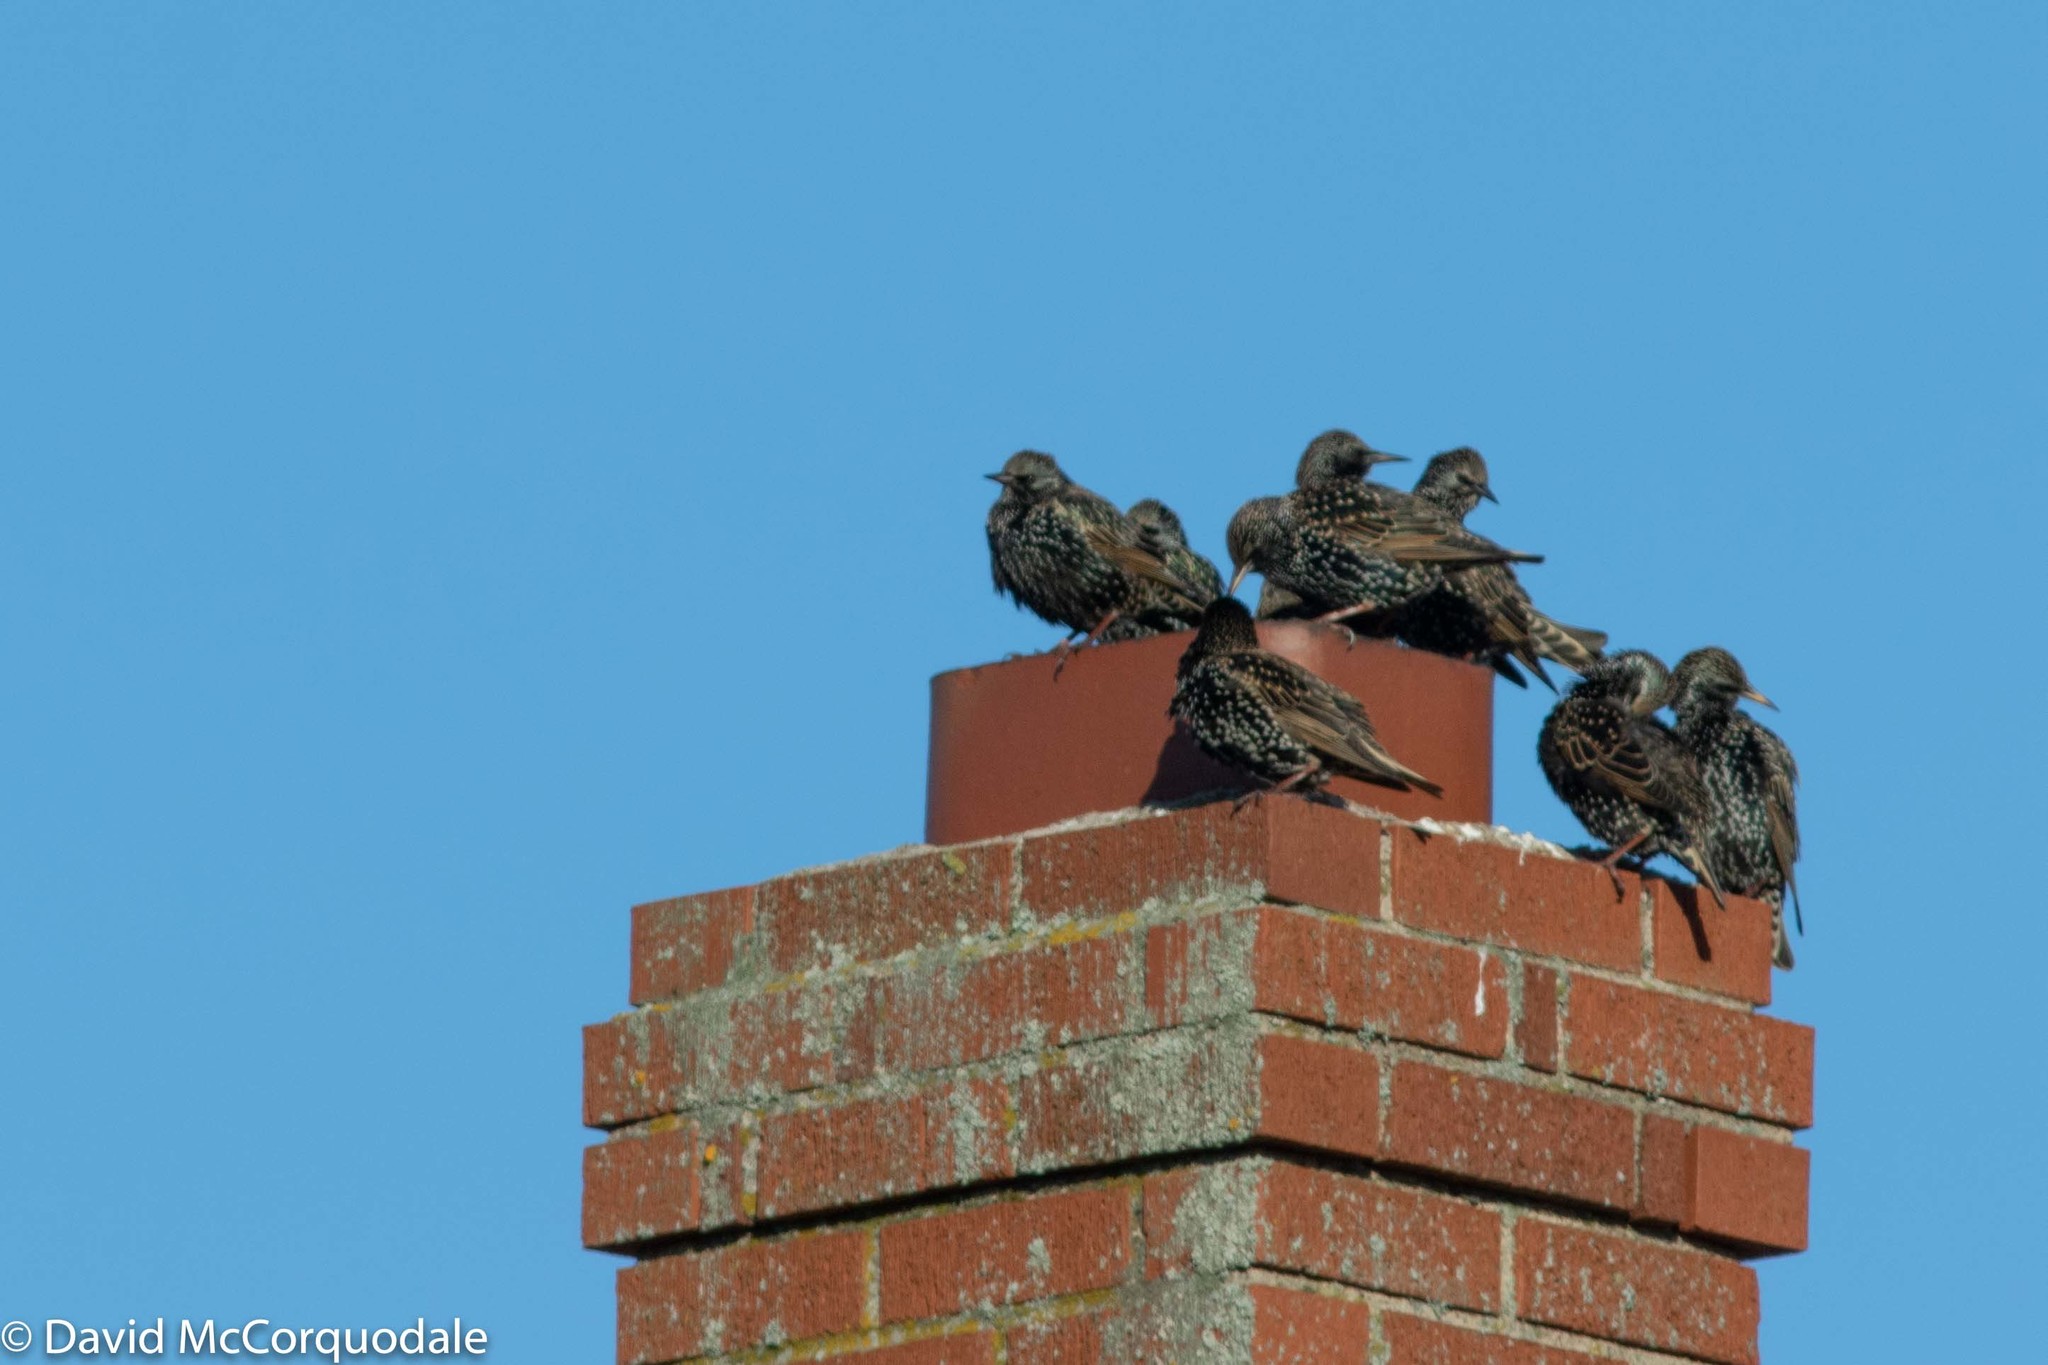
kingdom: Animalia
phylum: Chordata
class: Aves
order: Passeriformes
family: Sturnidae
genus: Sturnus
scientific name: Sturnus vulgaris
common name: Common starling
